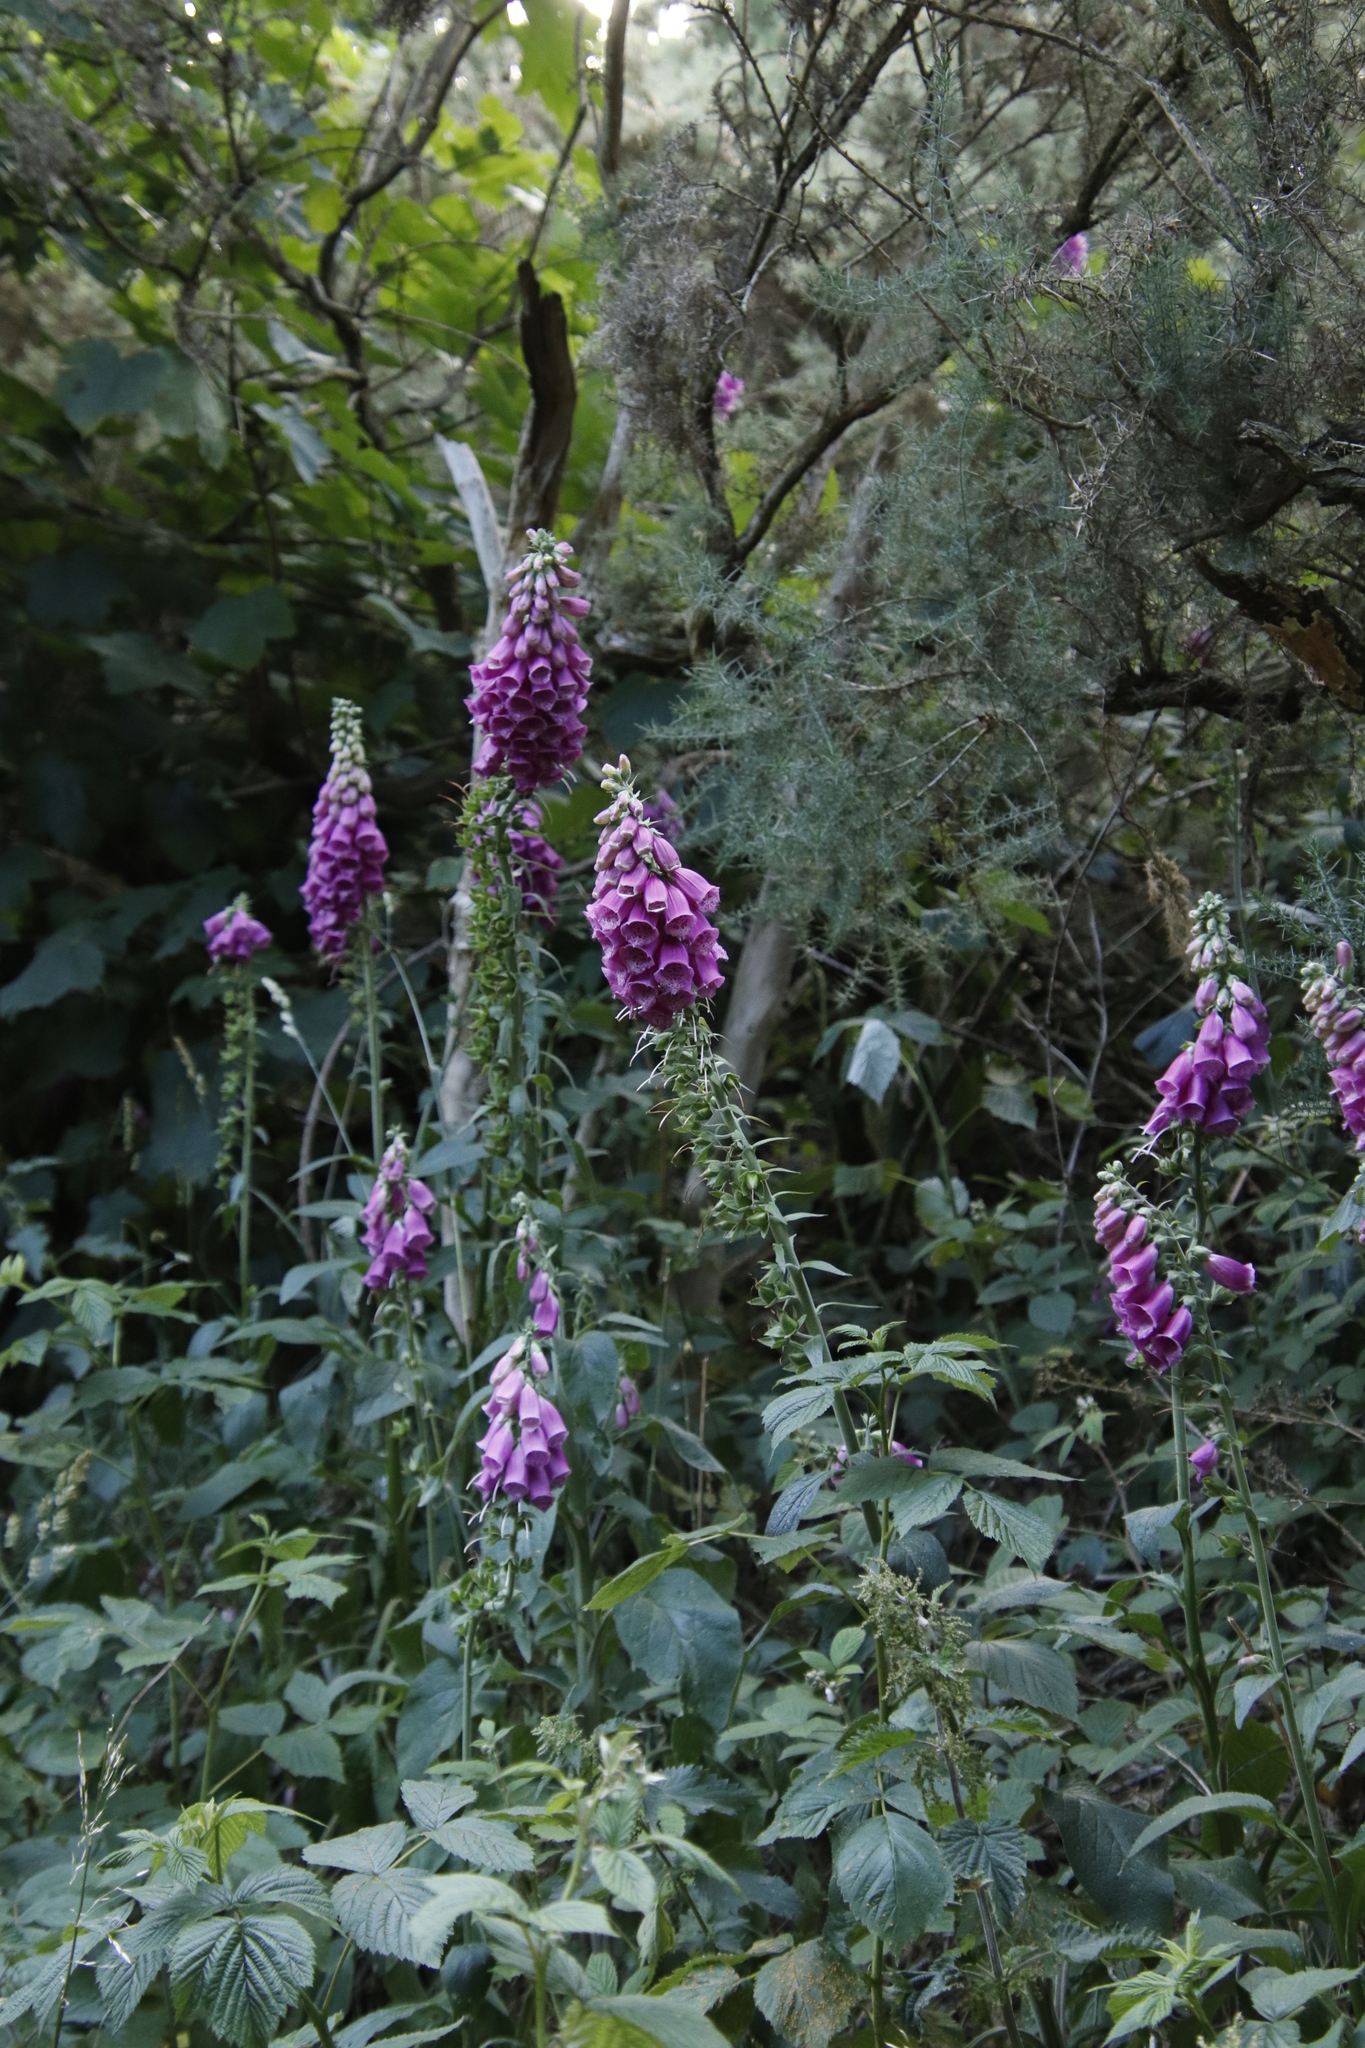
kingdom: Plantae
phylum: Tracheophyta
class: Magnoliopsida
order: Lamiales
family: Plantaginaceae
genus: Digitalis
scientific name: Digitalis purpurea
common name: Foxglove
